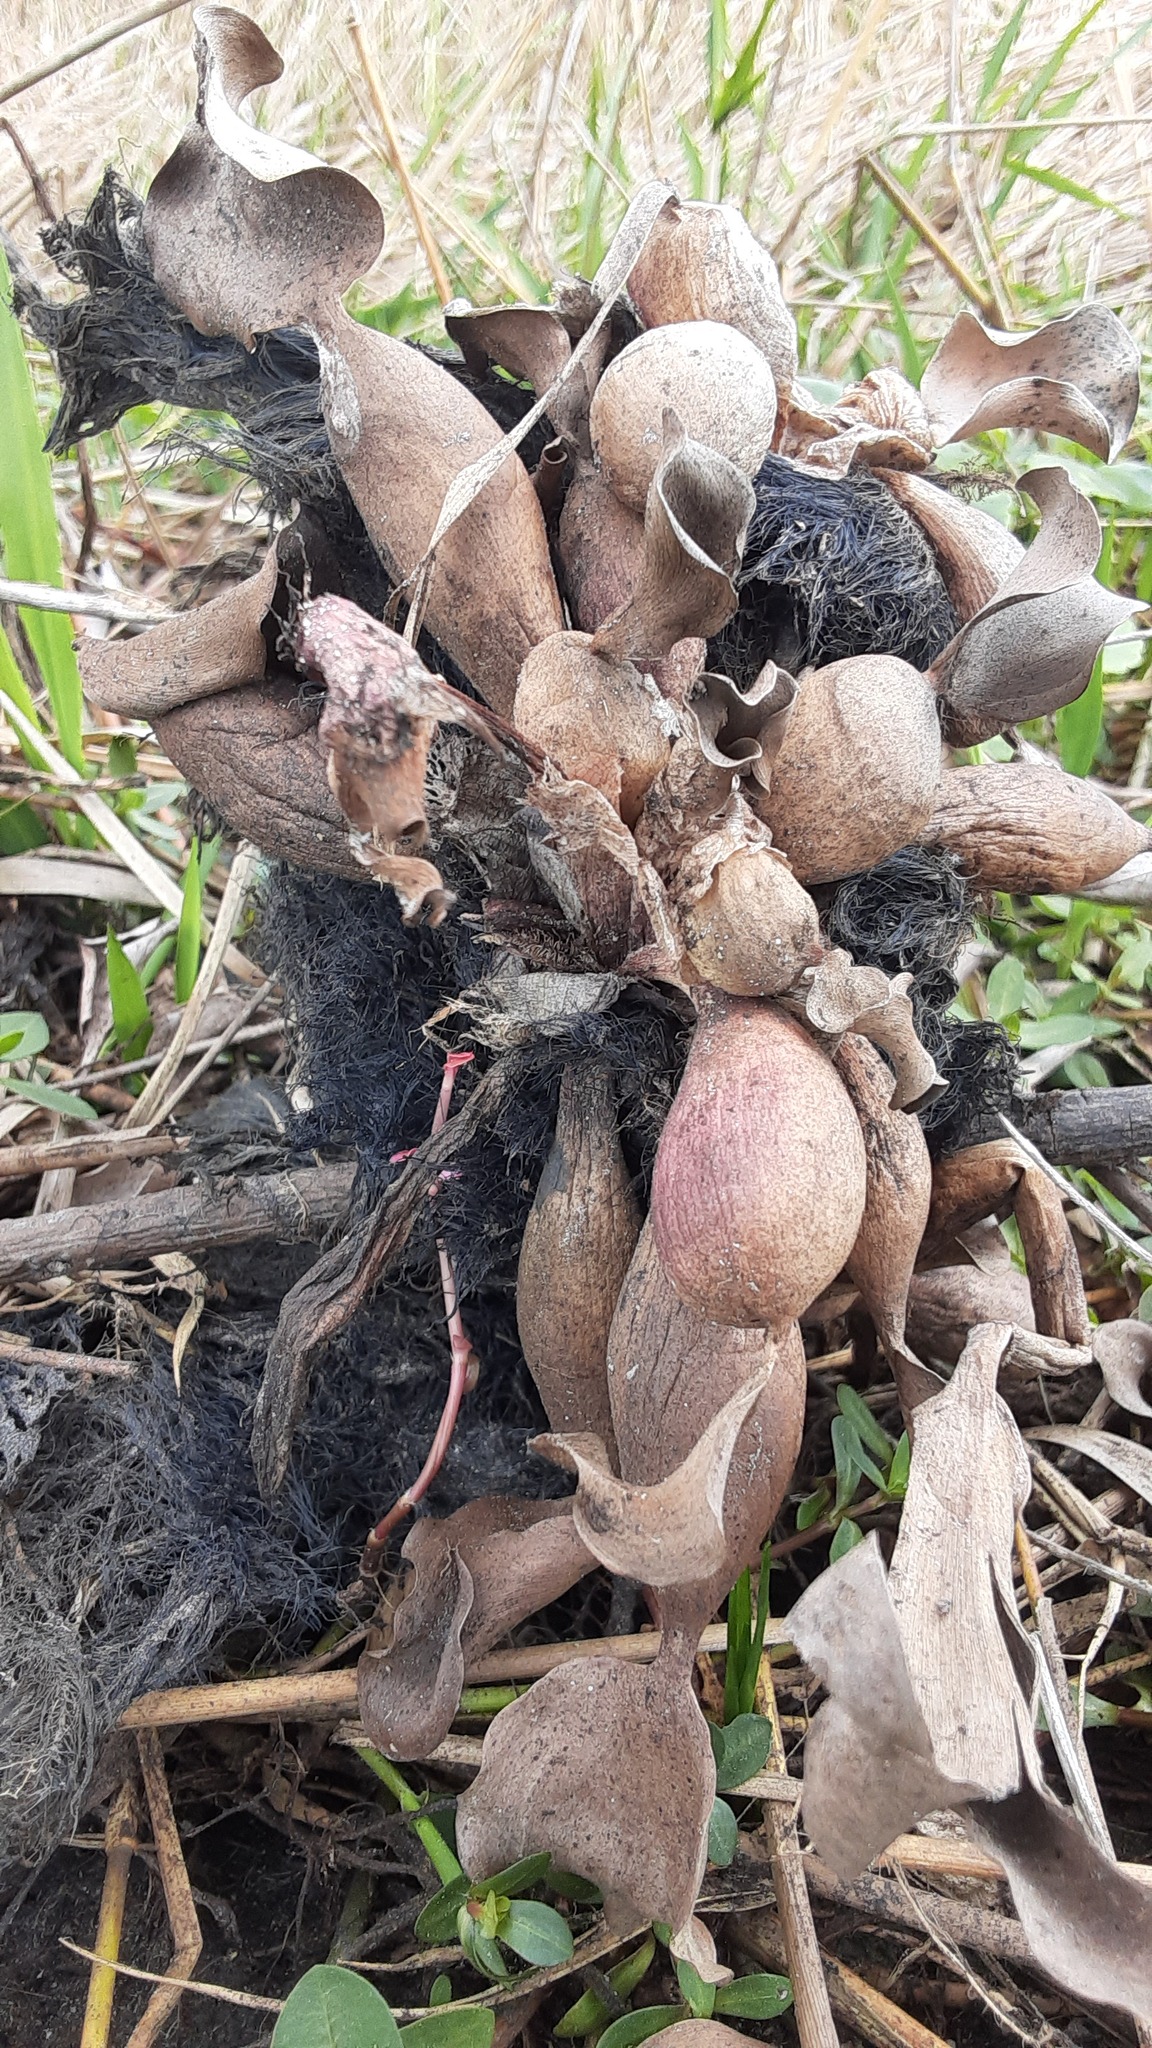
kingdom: Plantae
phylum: Tracheophyta
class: Liliopsida
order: Commelinales
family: Pontederiaceae
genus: Pontederia
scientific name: Pontederia crassipes
